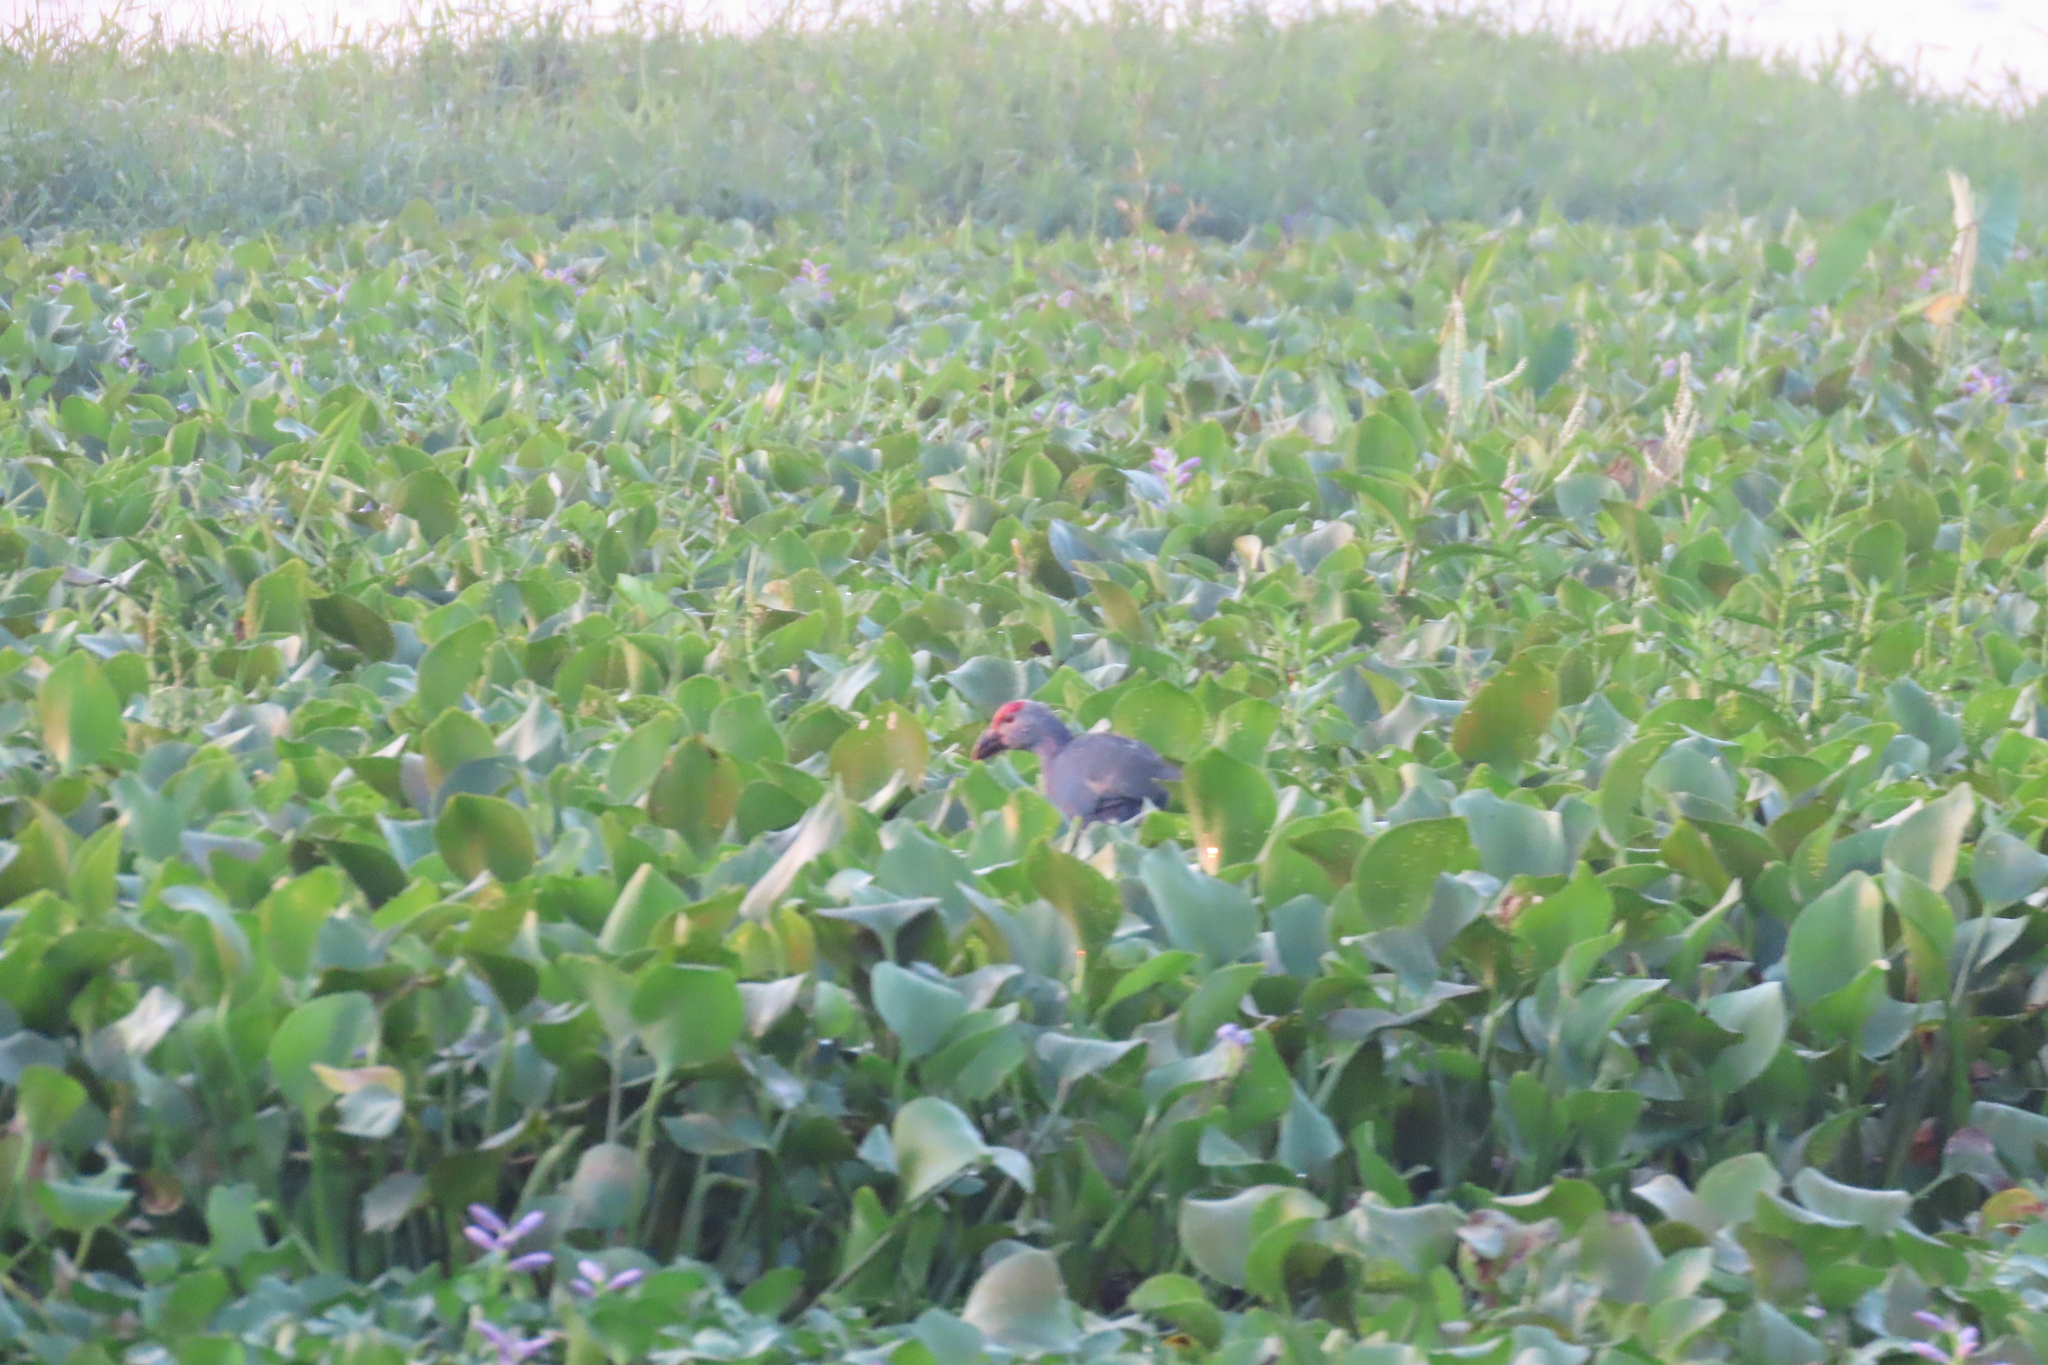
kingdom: Animalia
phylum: Chordata
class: Aves
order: Gruiformes
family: Rallidae
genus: Porphyrio
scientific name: Porphyrio porphyrio
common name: Purple swamphen
